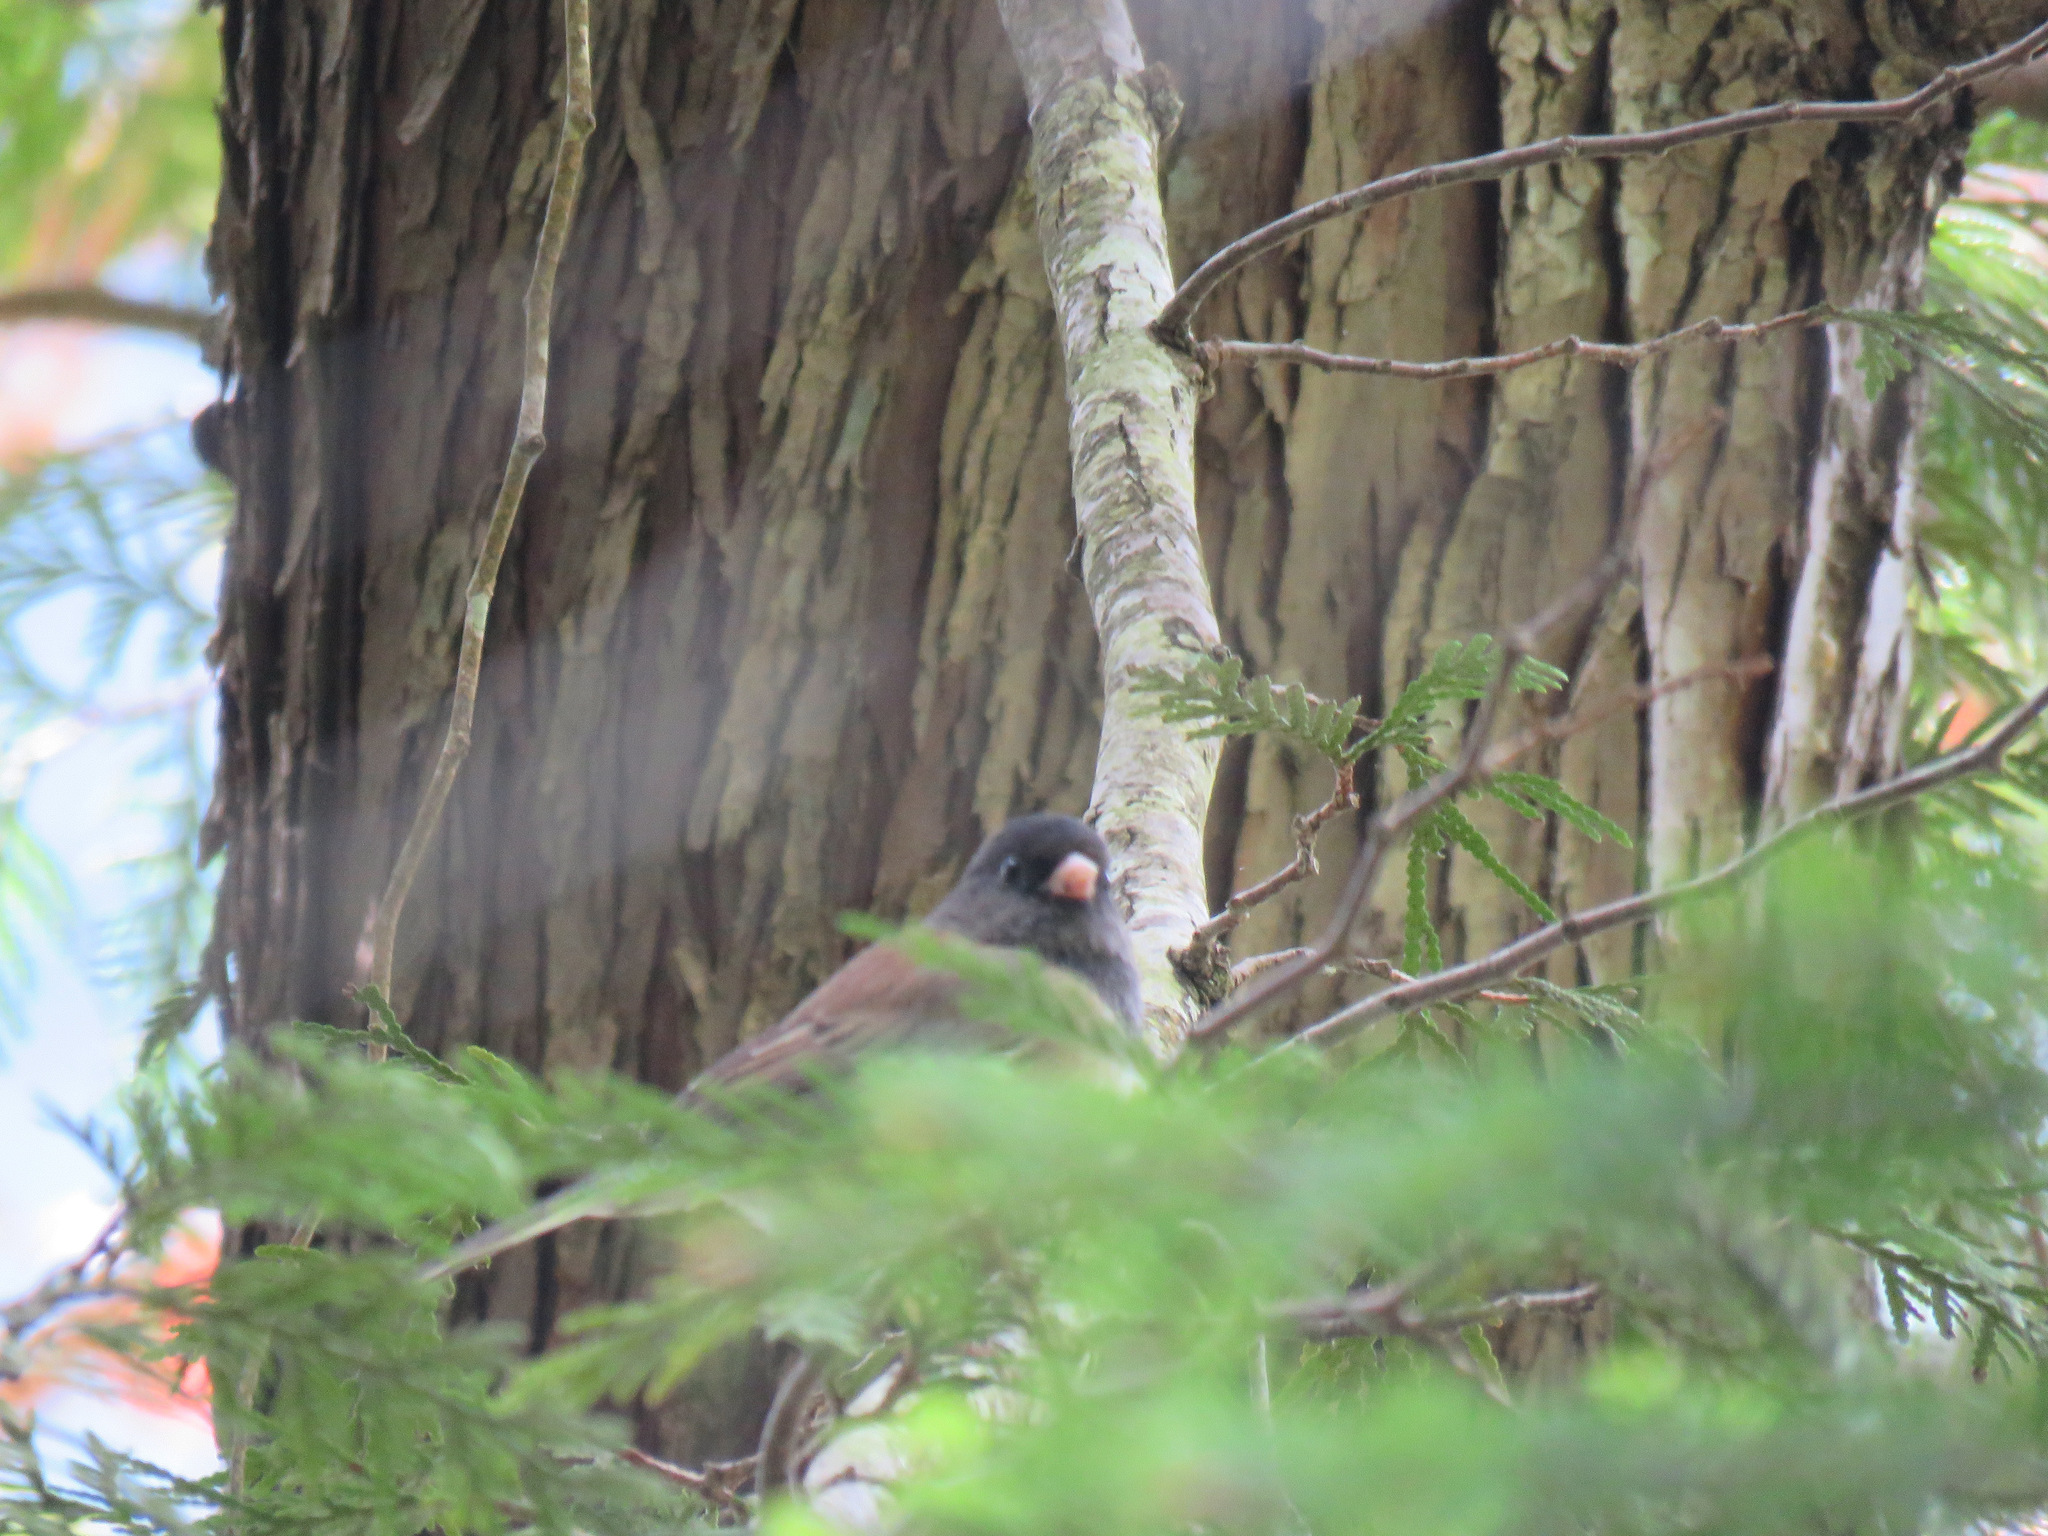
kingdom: Animalia
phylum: Chordata
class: Aves
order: Passeriformes
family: Passerellidae
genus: Junco
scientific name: Junco hyemalis
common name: Dark-eyed junco
